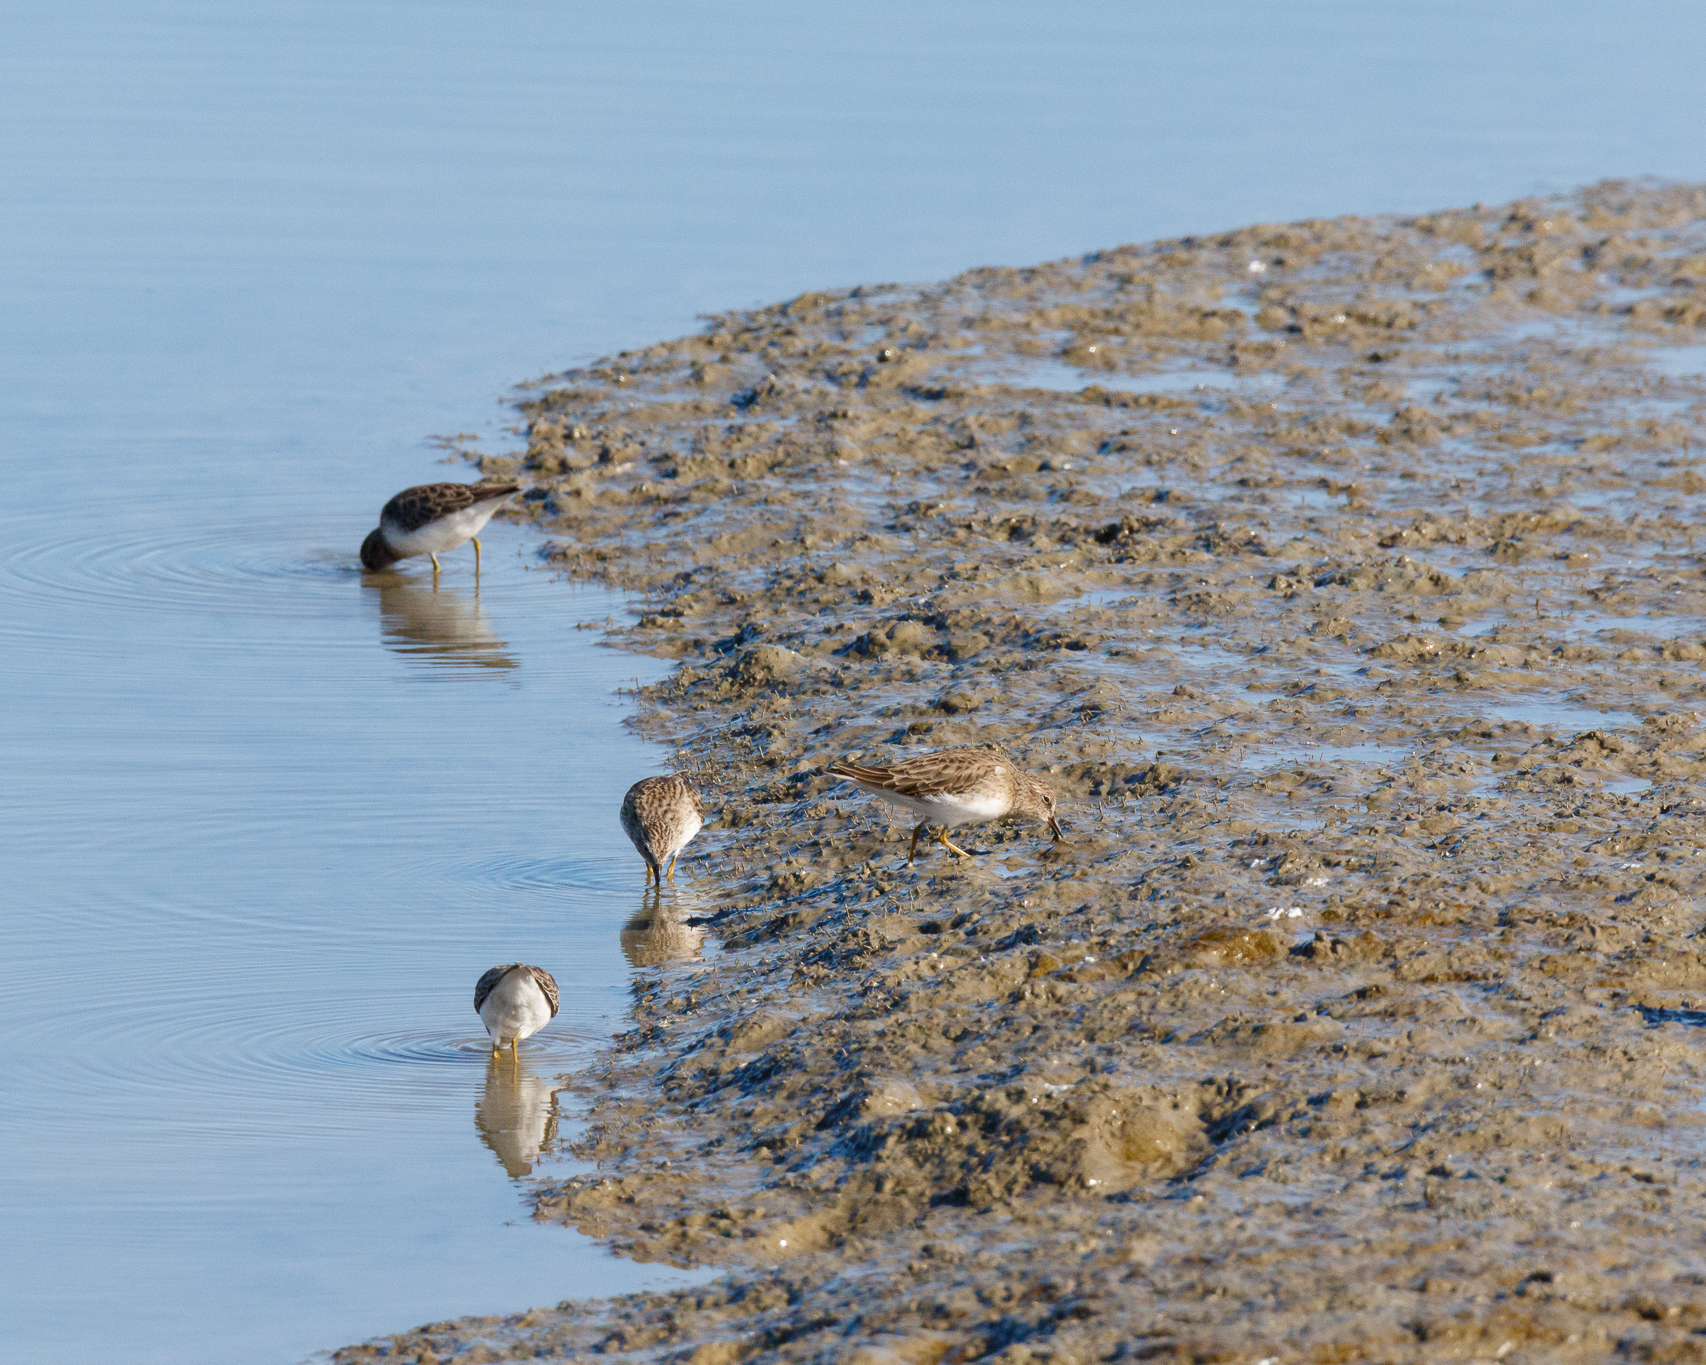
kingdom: Animalia
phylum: Chordata
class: Aves
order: Charadriiformes
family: Scolopacidae
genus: Calidris
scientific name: Calidris minutilla
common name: Least sandpiper
